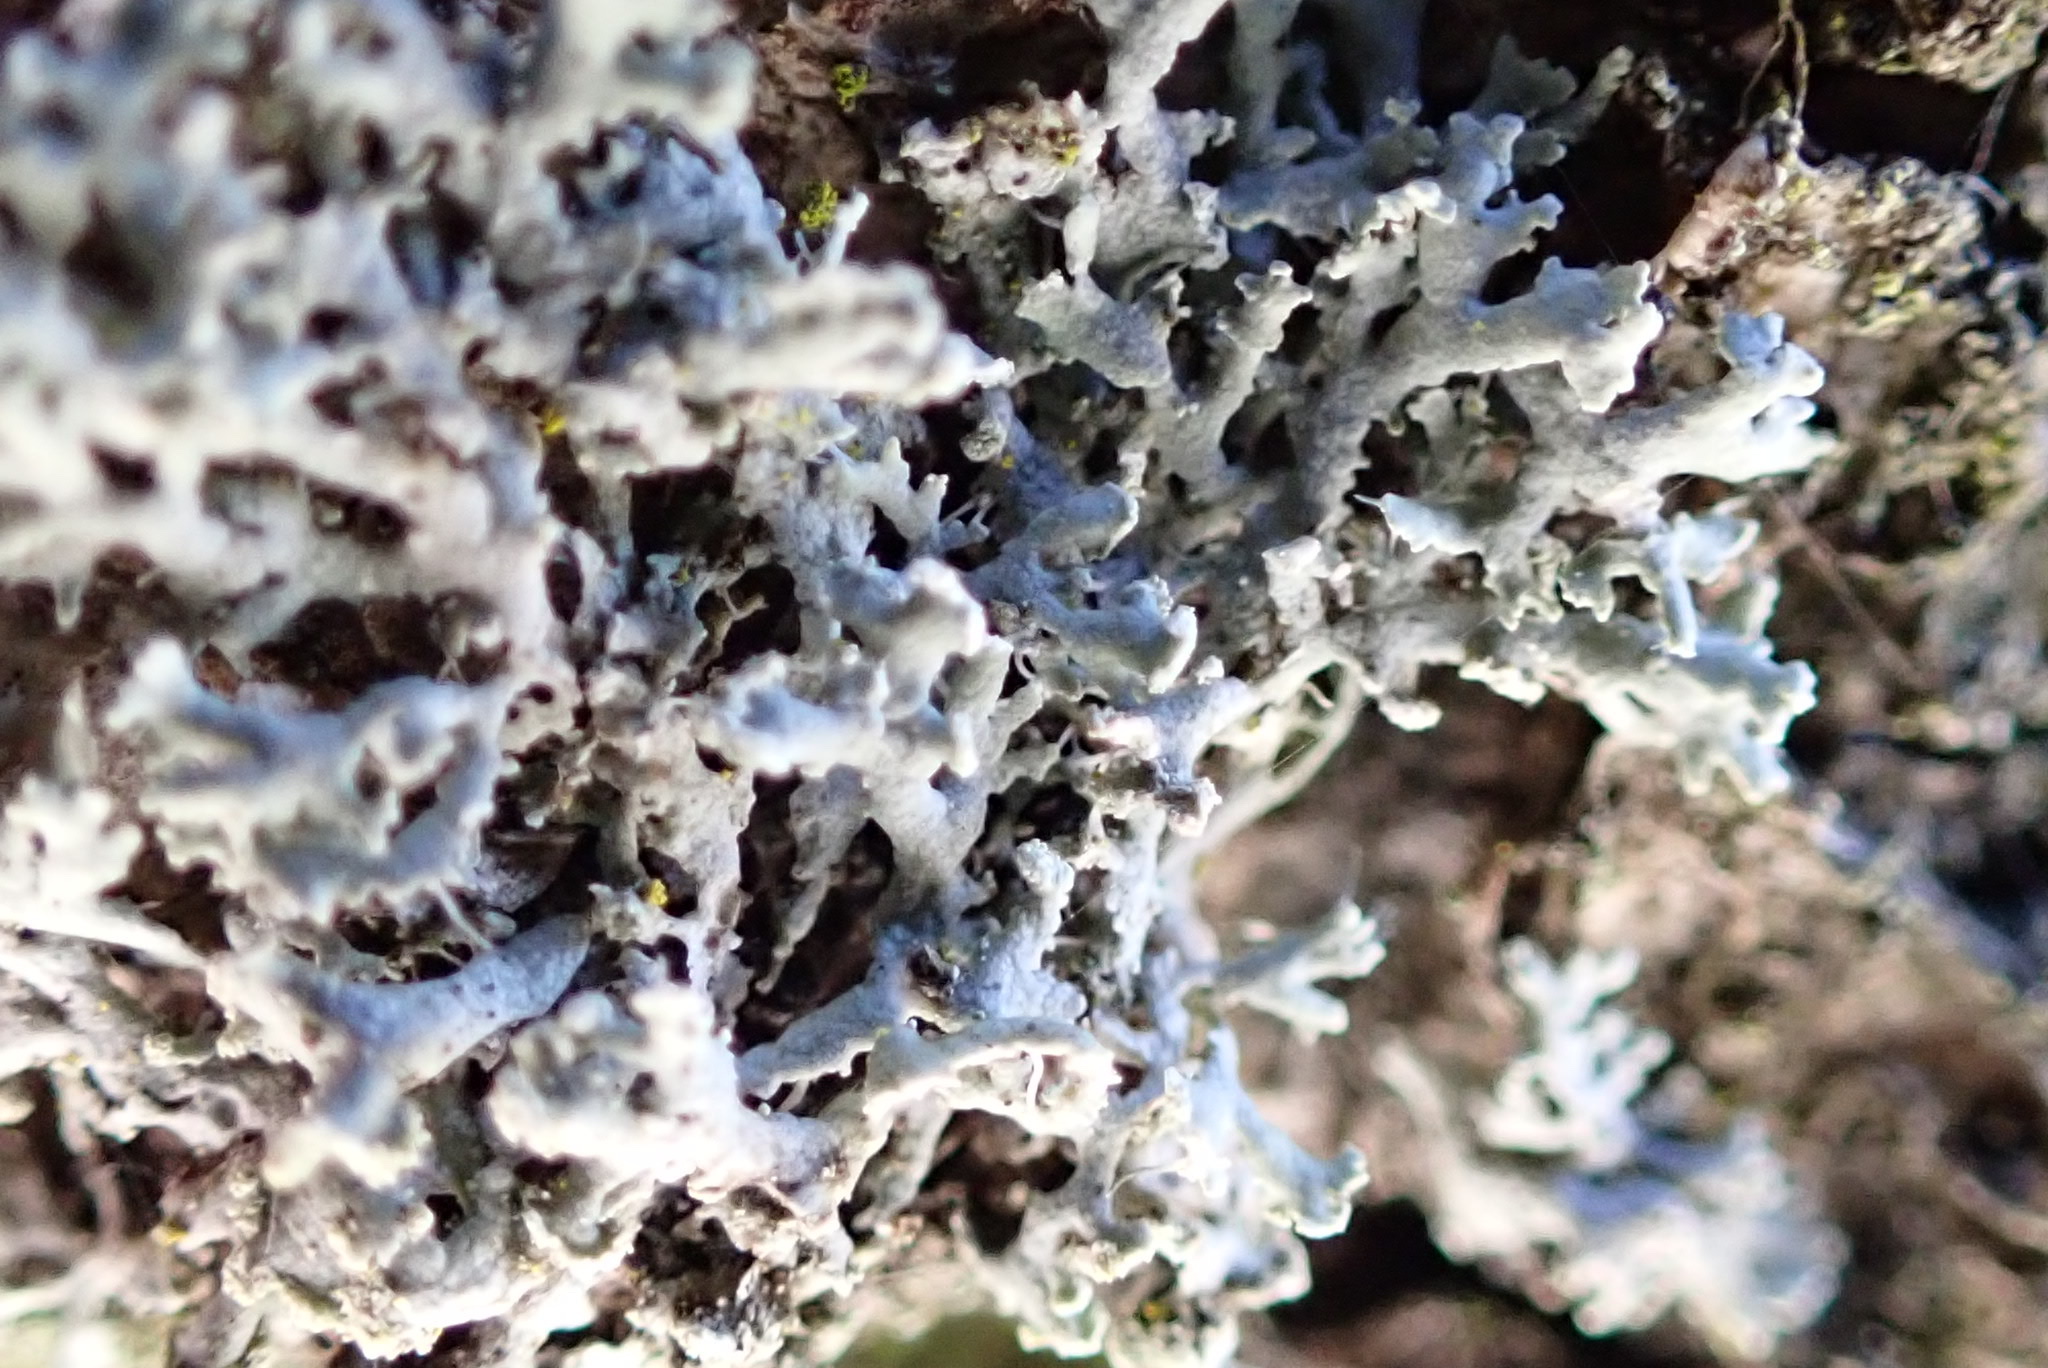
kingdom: Fungi
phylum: Ascomycota
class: Lecanoromycetes
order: Caliciales
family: Physciaceae
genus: Physcia
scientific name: Physcia tenella
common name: Fringed rosette lichen
